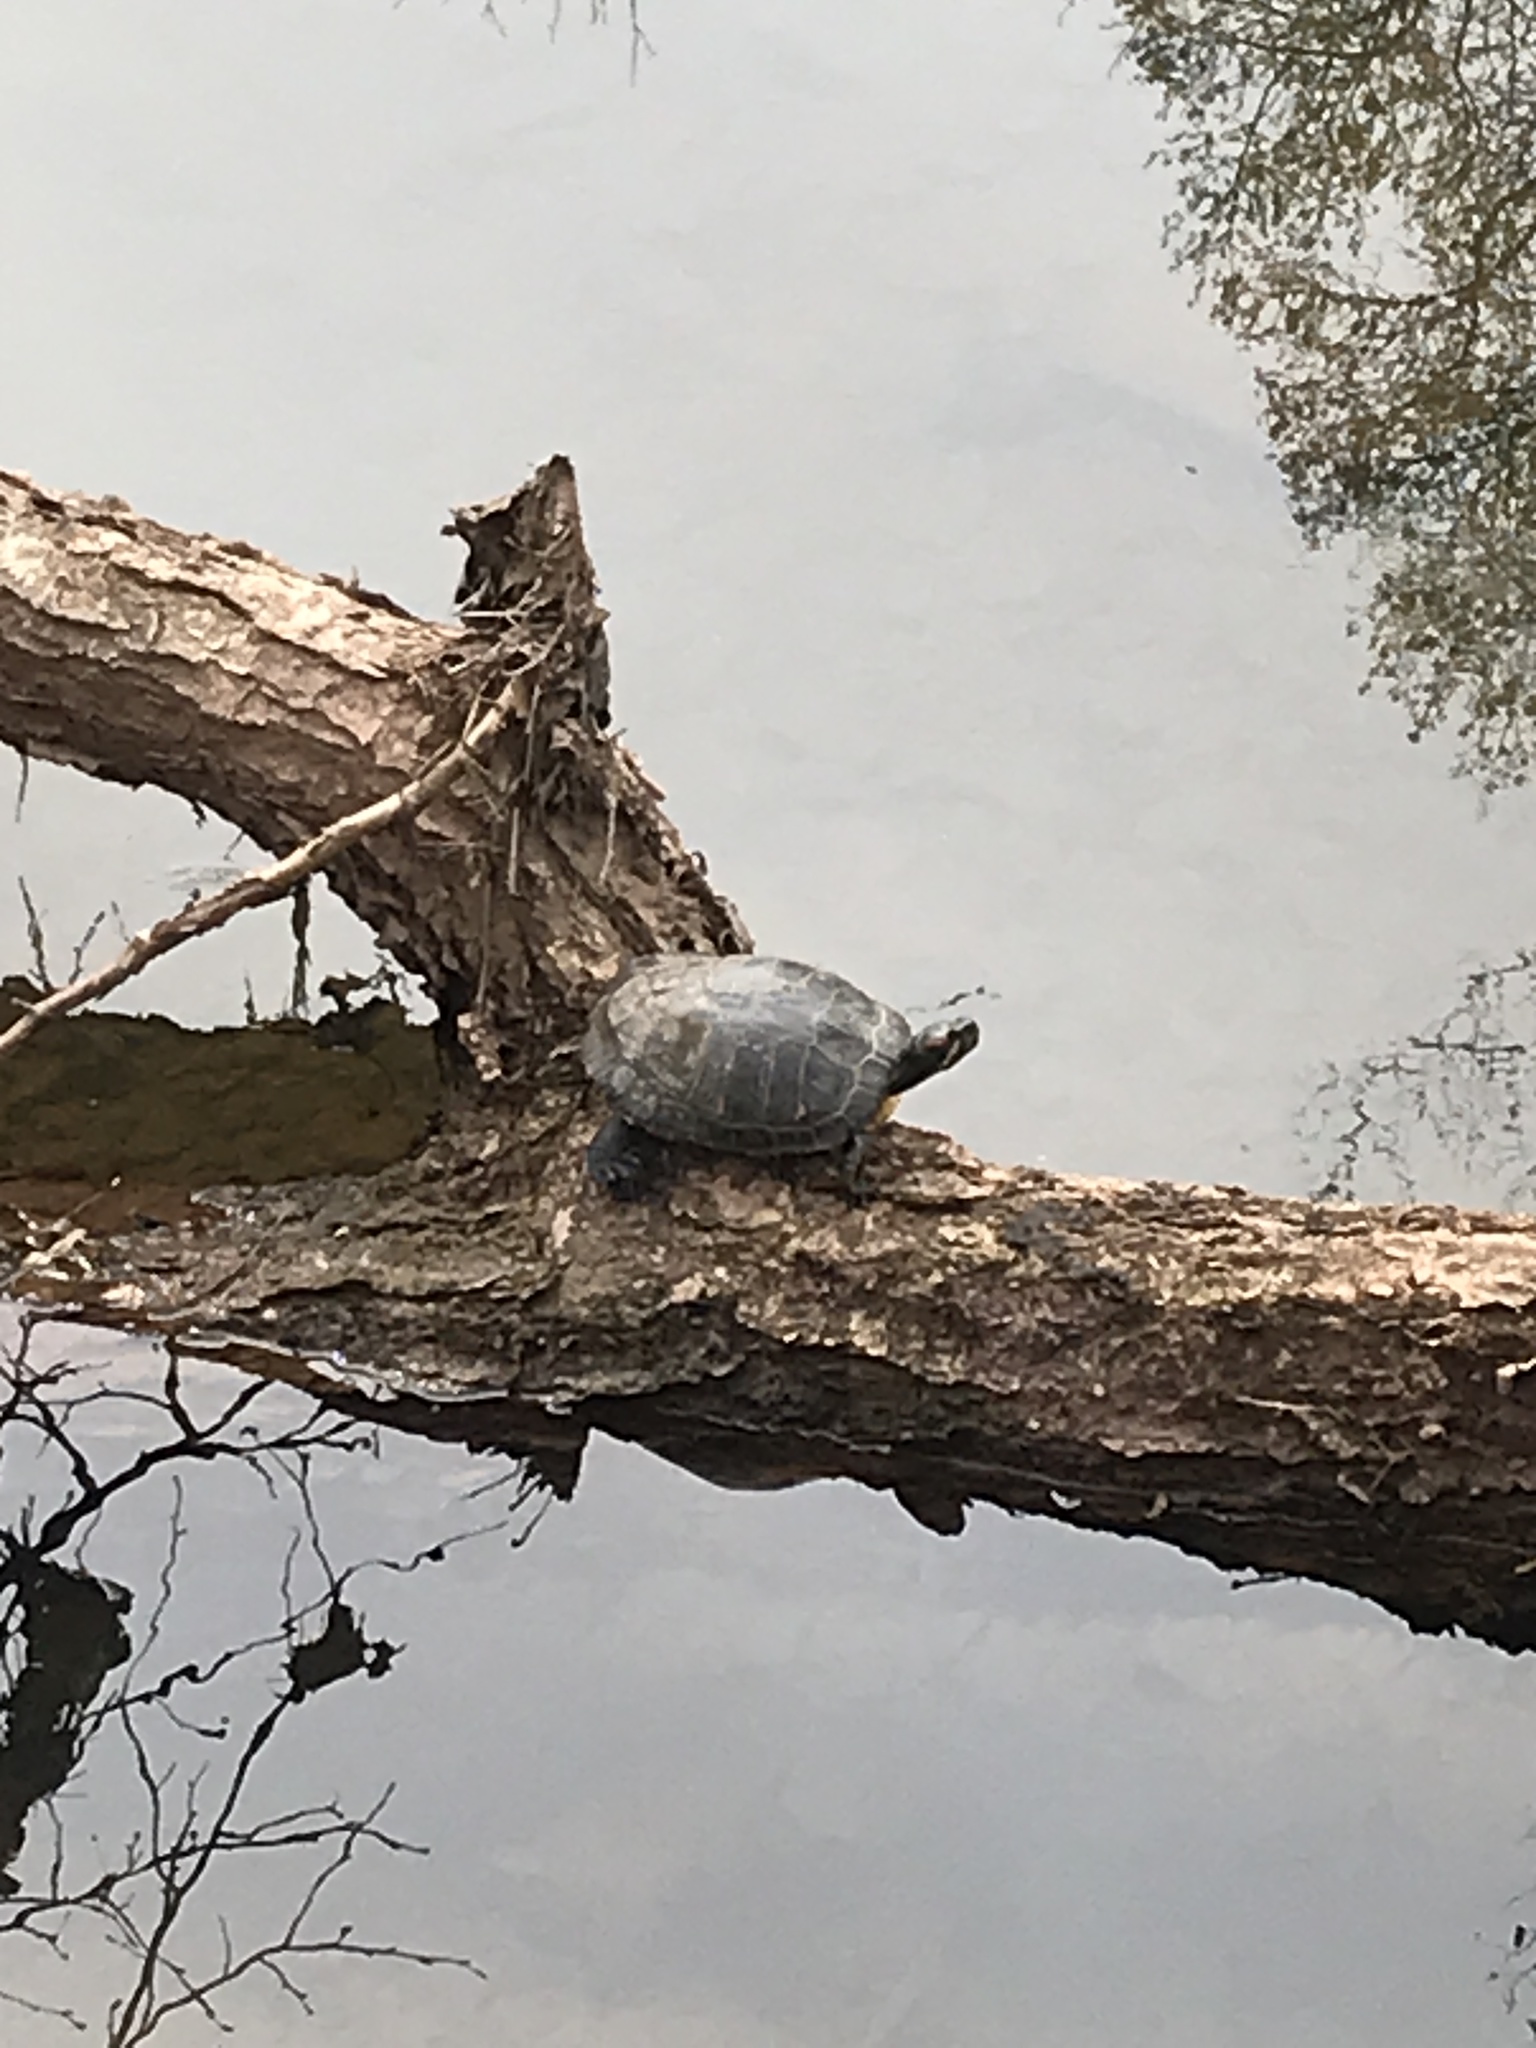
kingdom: Animalia
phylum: Chordata
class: Testudines
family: Emydidae
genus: Trachemys
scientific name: Trachemys scripta
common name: Slider
